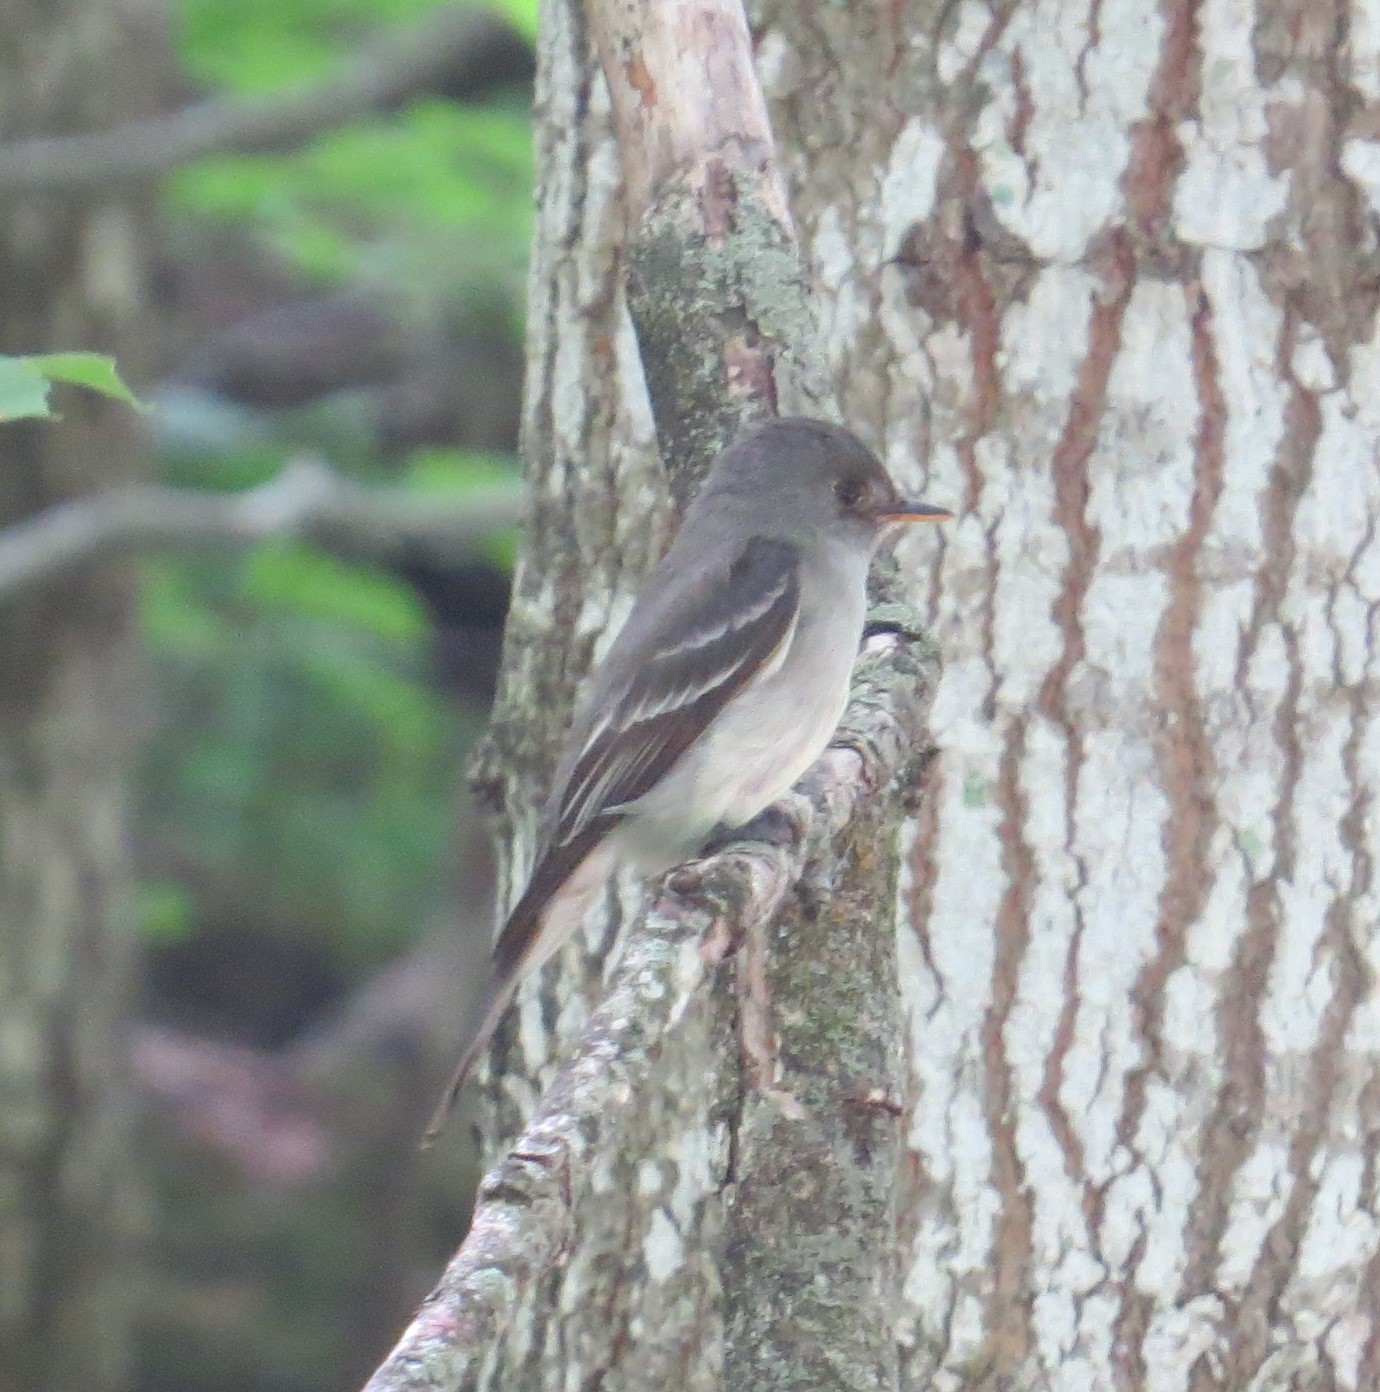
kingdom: Animalia
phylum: Chordata
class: Aves
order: Passeriformes
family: Tyrannidae
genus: Contopus
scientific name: Contopus virens
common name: Eastern wood-pewee
